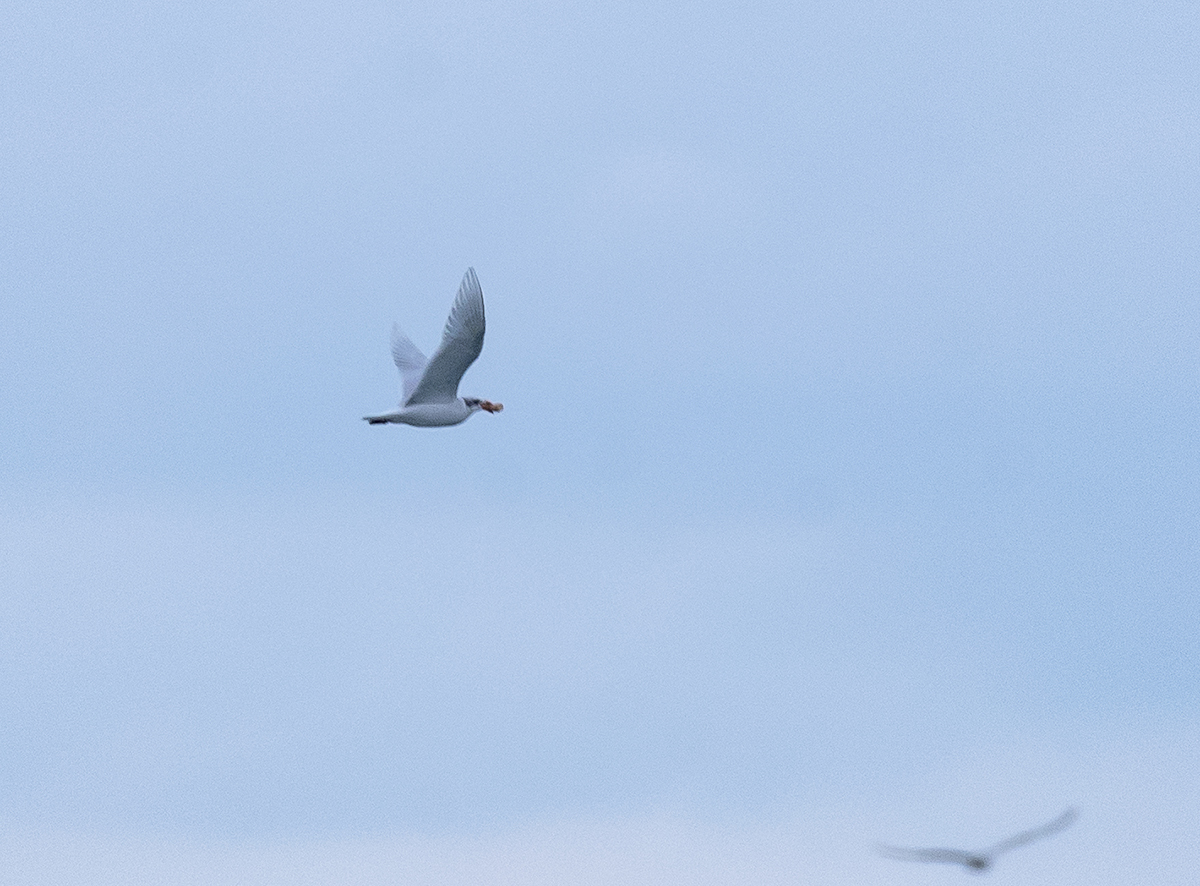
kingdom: Animalia
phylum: Chordata
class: Aves
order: Charadriiformes
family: Laridae
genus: Ichthyaetus
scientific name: Ichthyaetus melanocephalus
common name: Mediterranean gull
